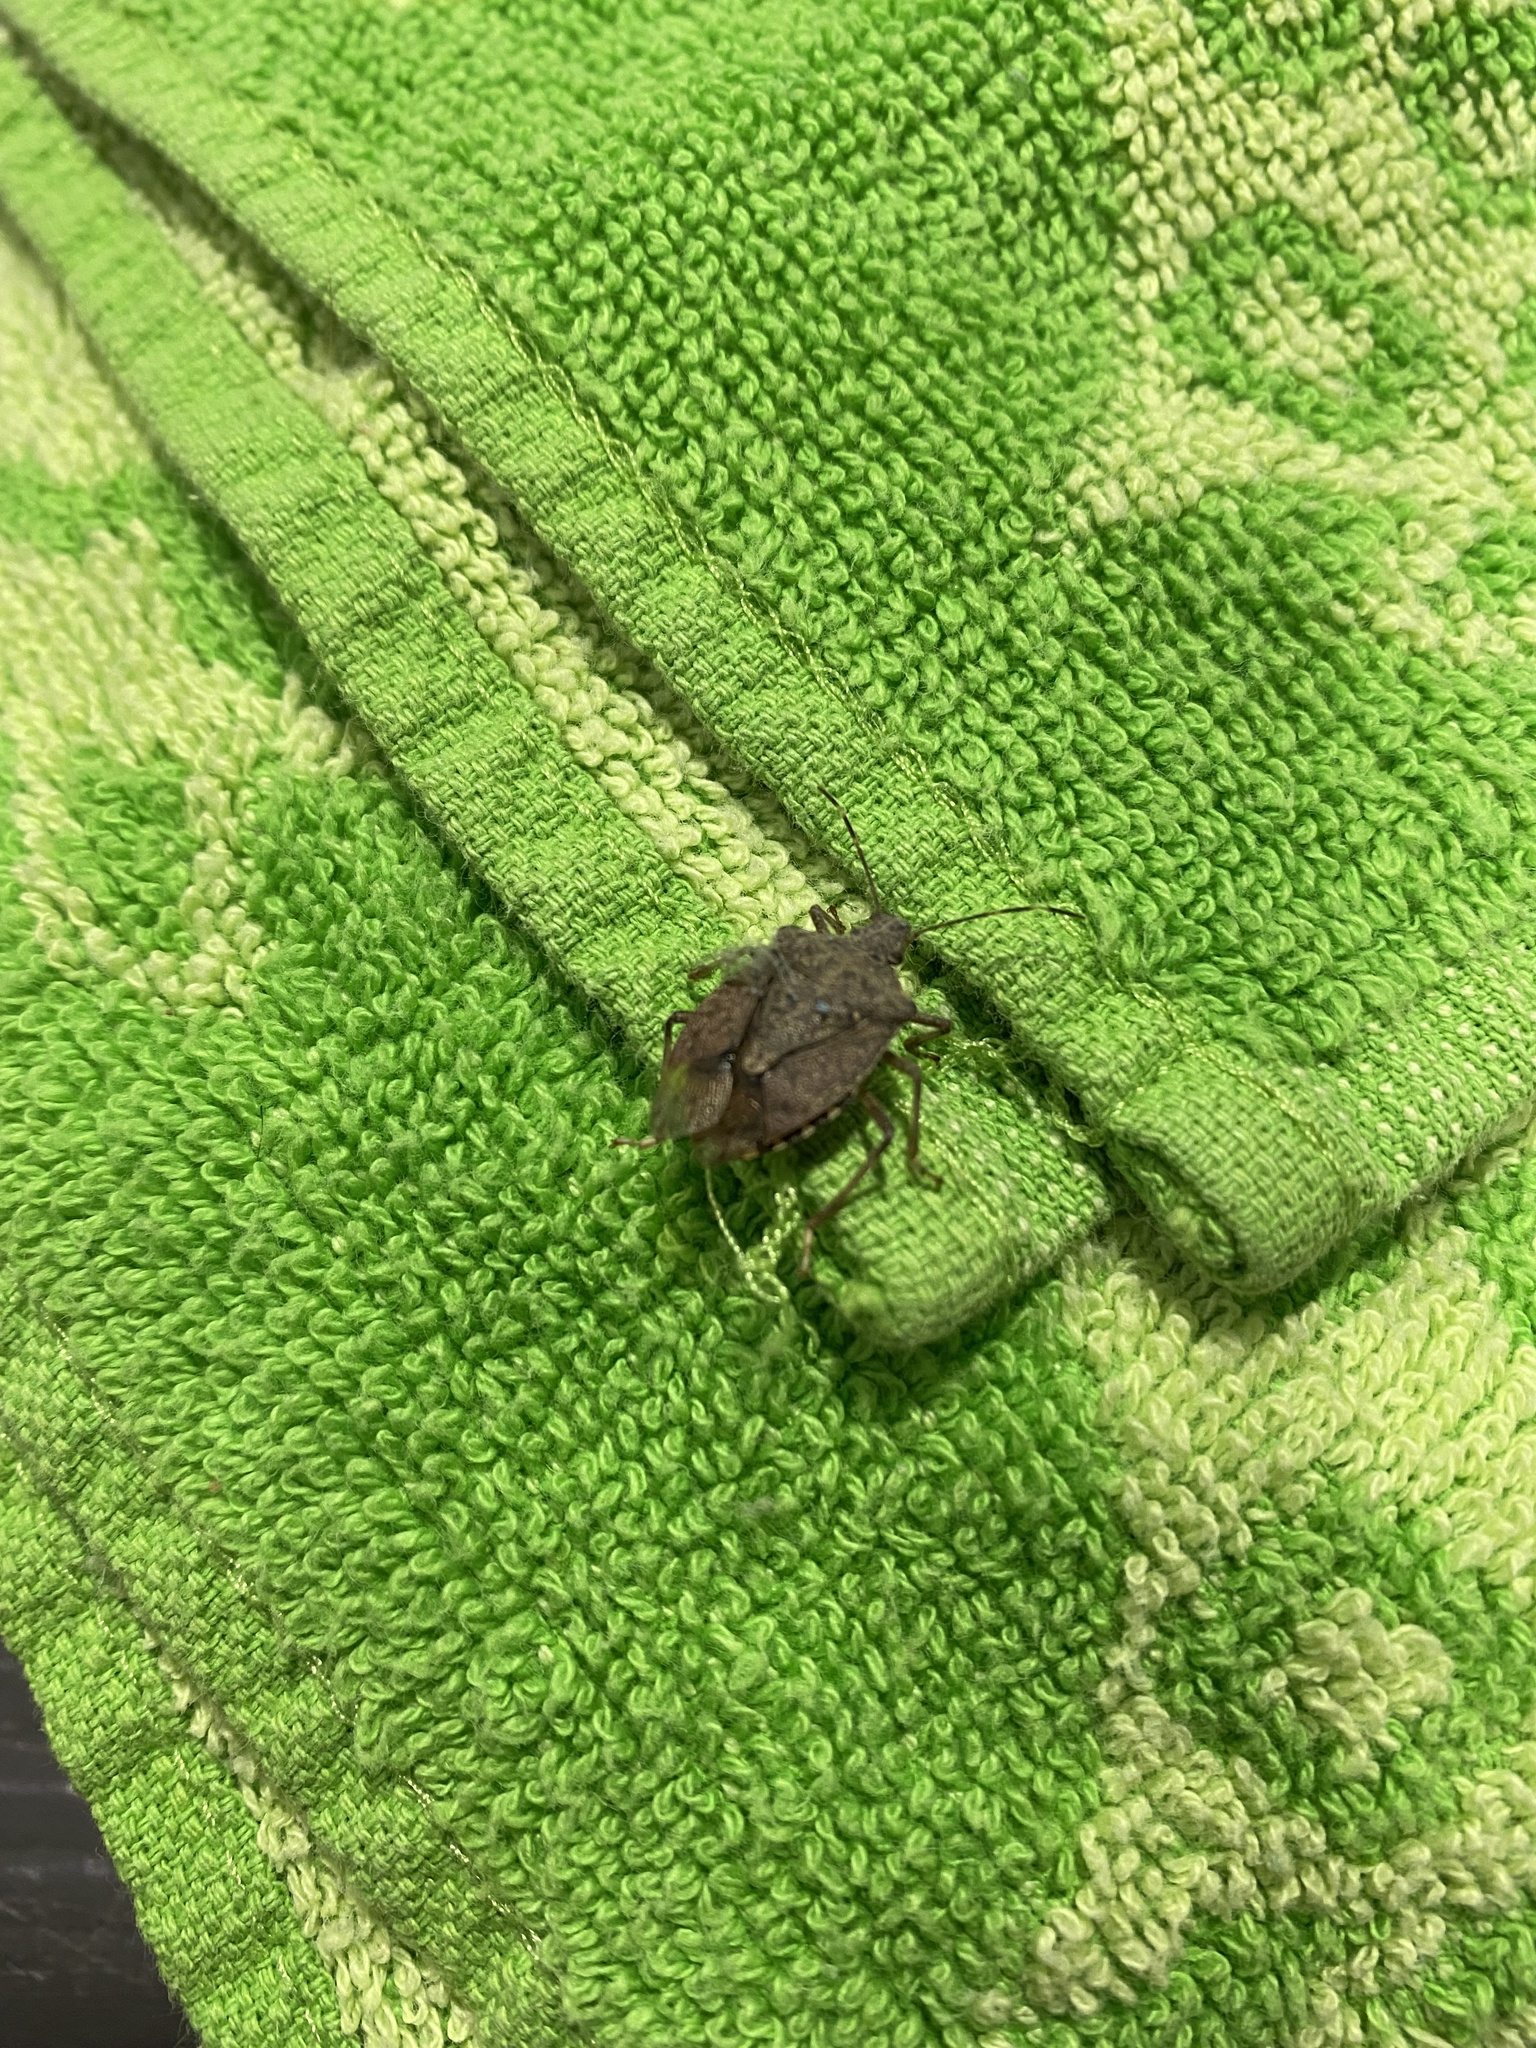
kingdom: Animalia
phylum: Arthropoda
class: Insecta
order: Hemiptera
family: Pentatomidae
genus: Halyomorpha
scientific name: Halyomorpha halys
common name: Brown marmorated stink bug
